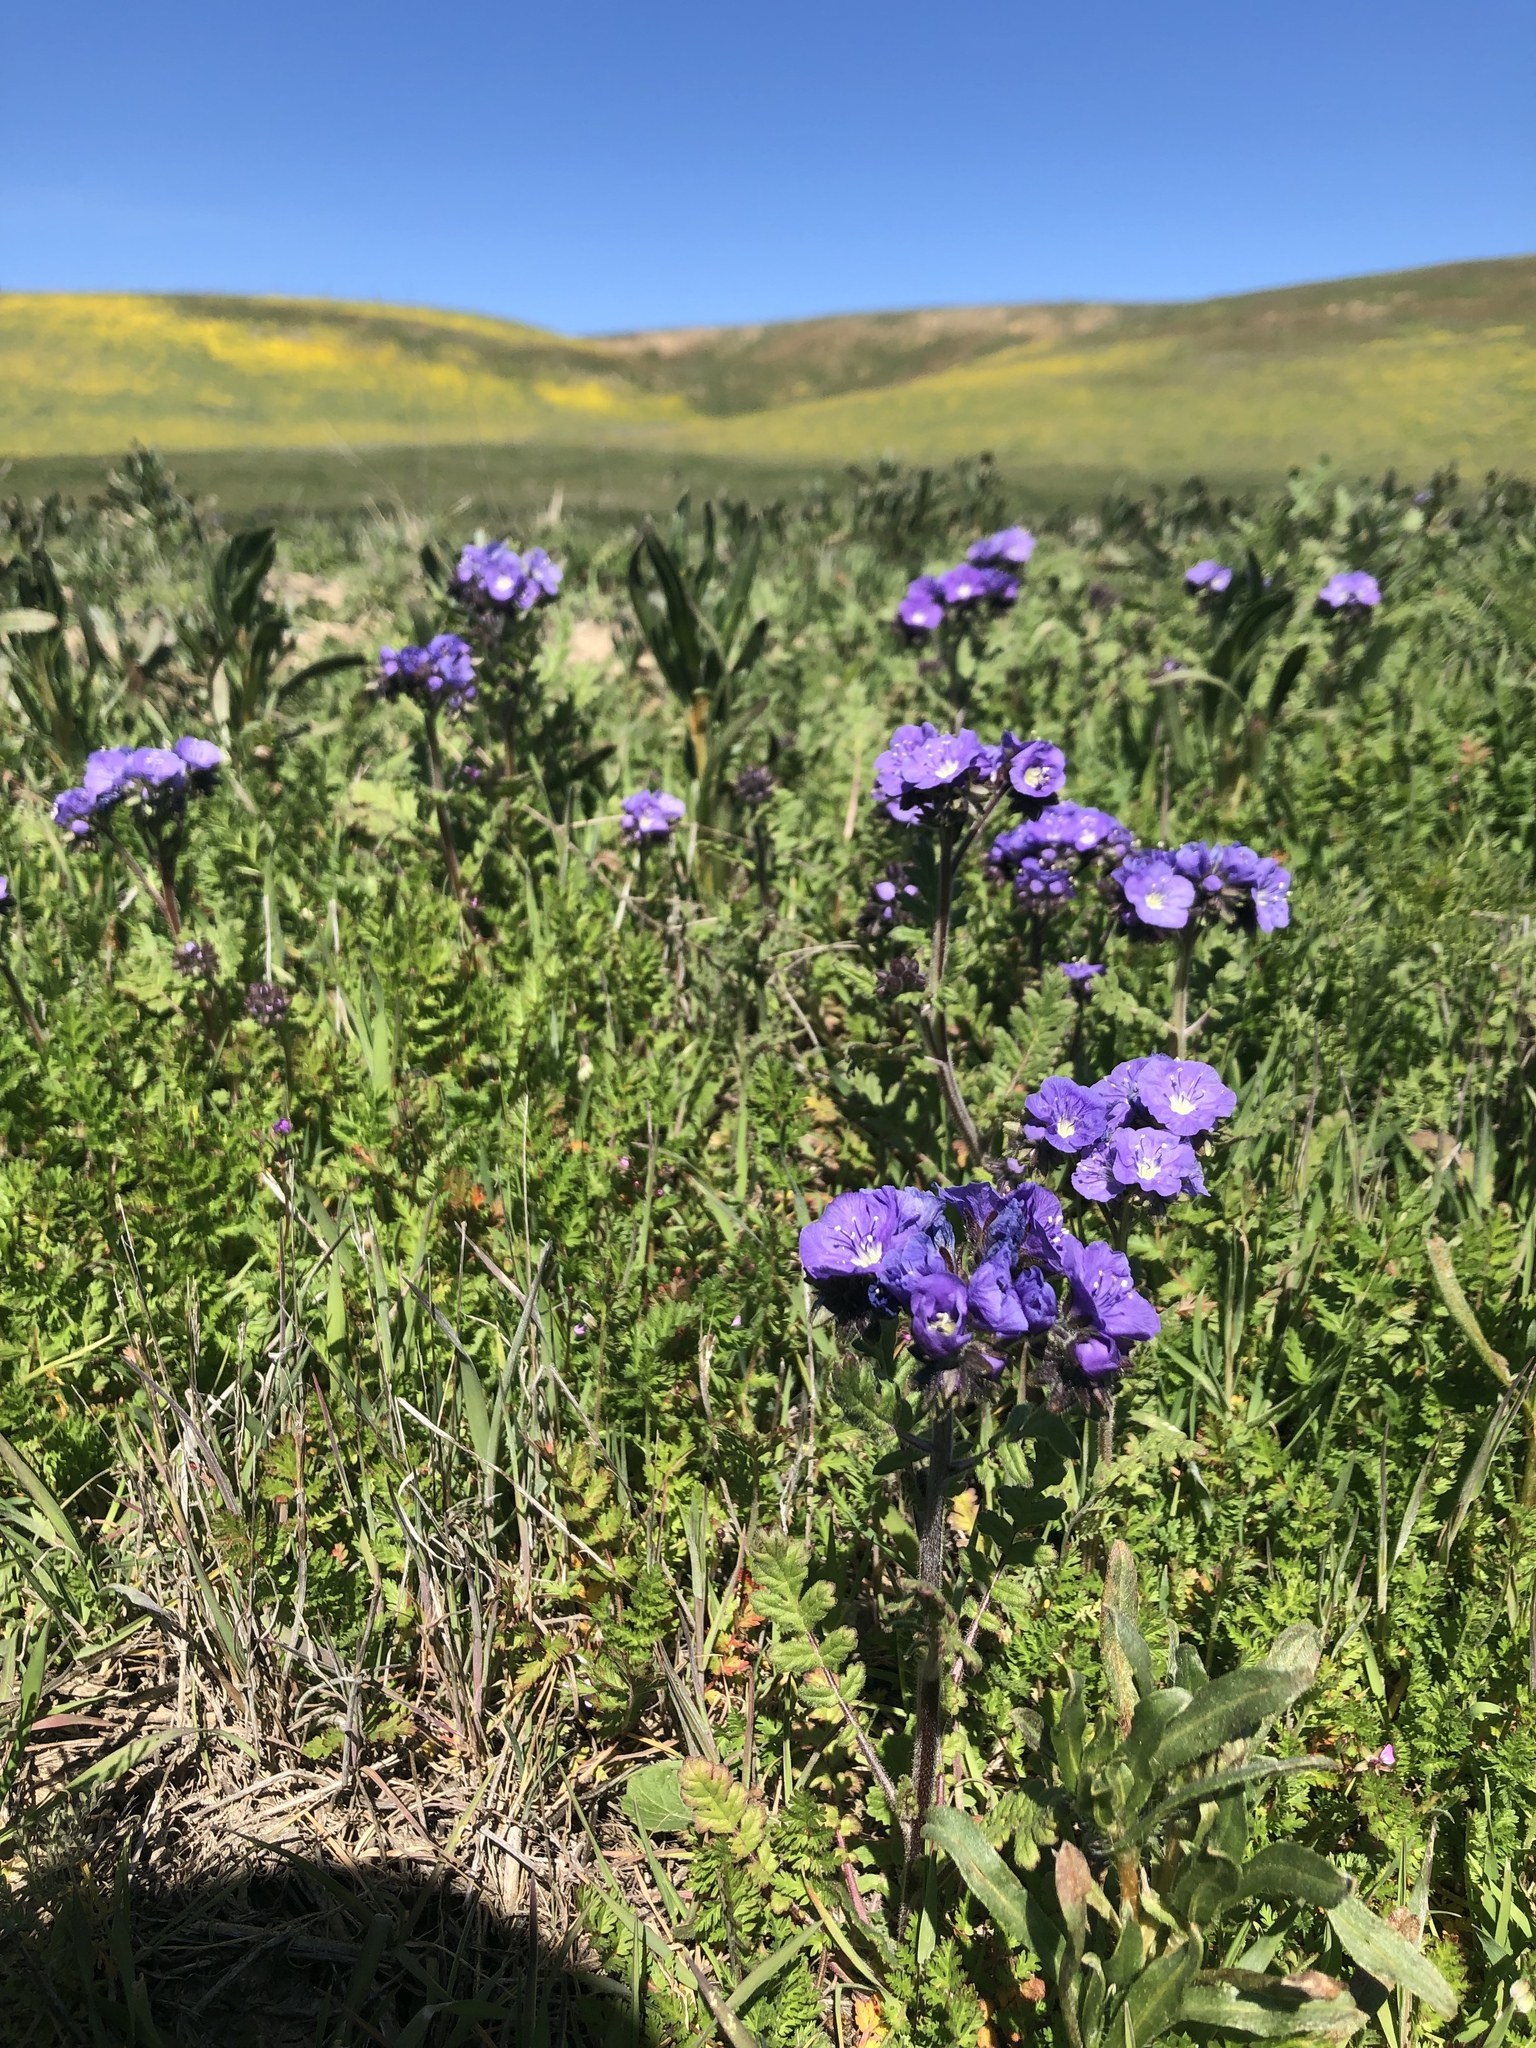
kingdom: Plantae
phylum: Tracheophyta
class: Magnoliopsida
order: Boraginales
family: Hydrophyllaceae
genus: Phacelia
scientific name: Phacelia ciliata
